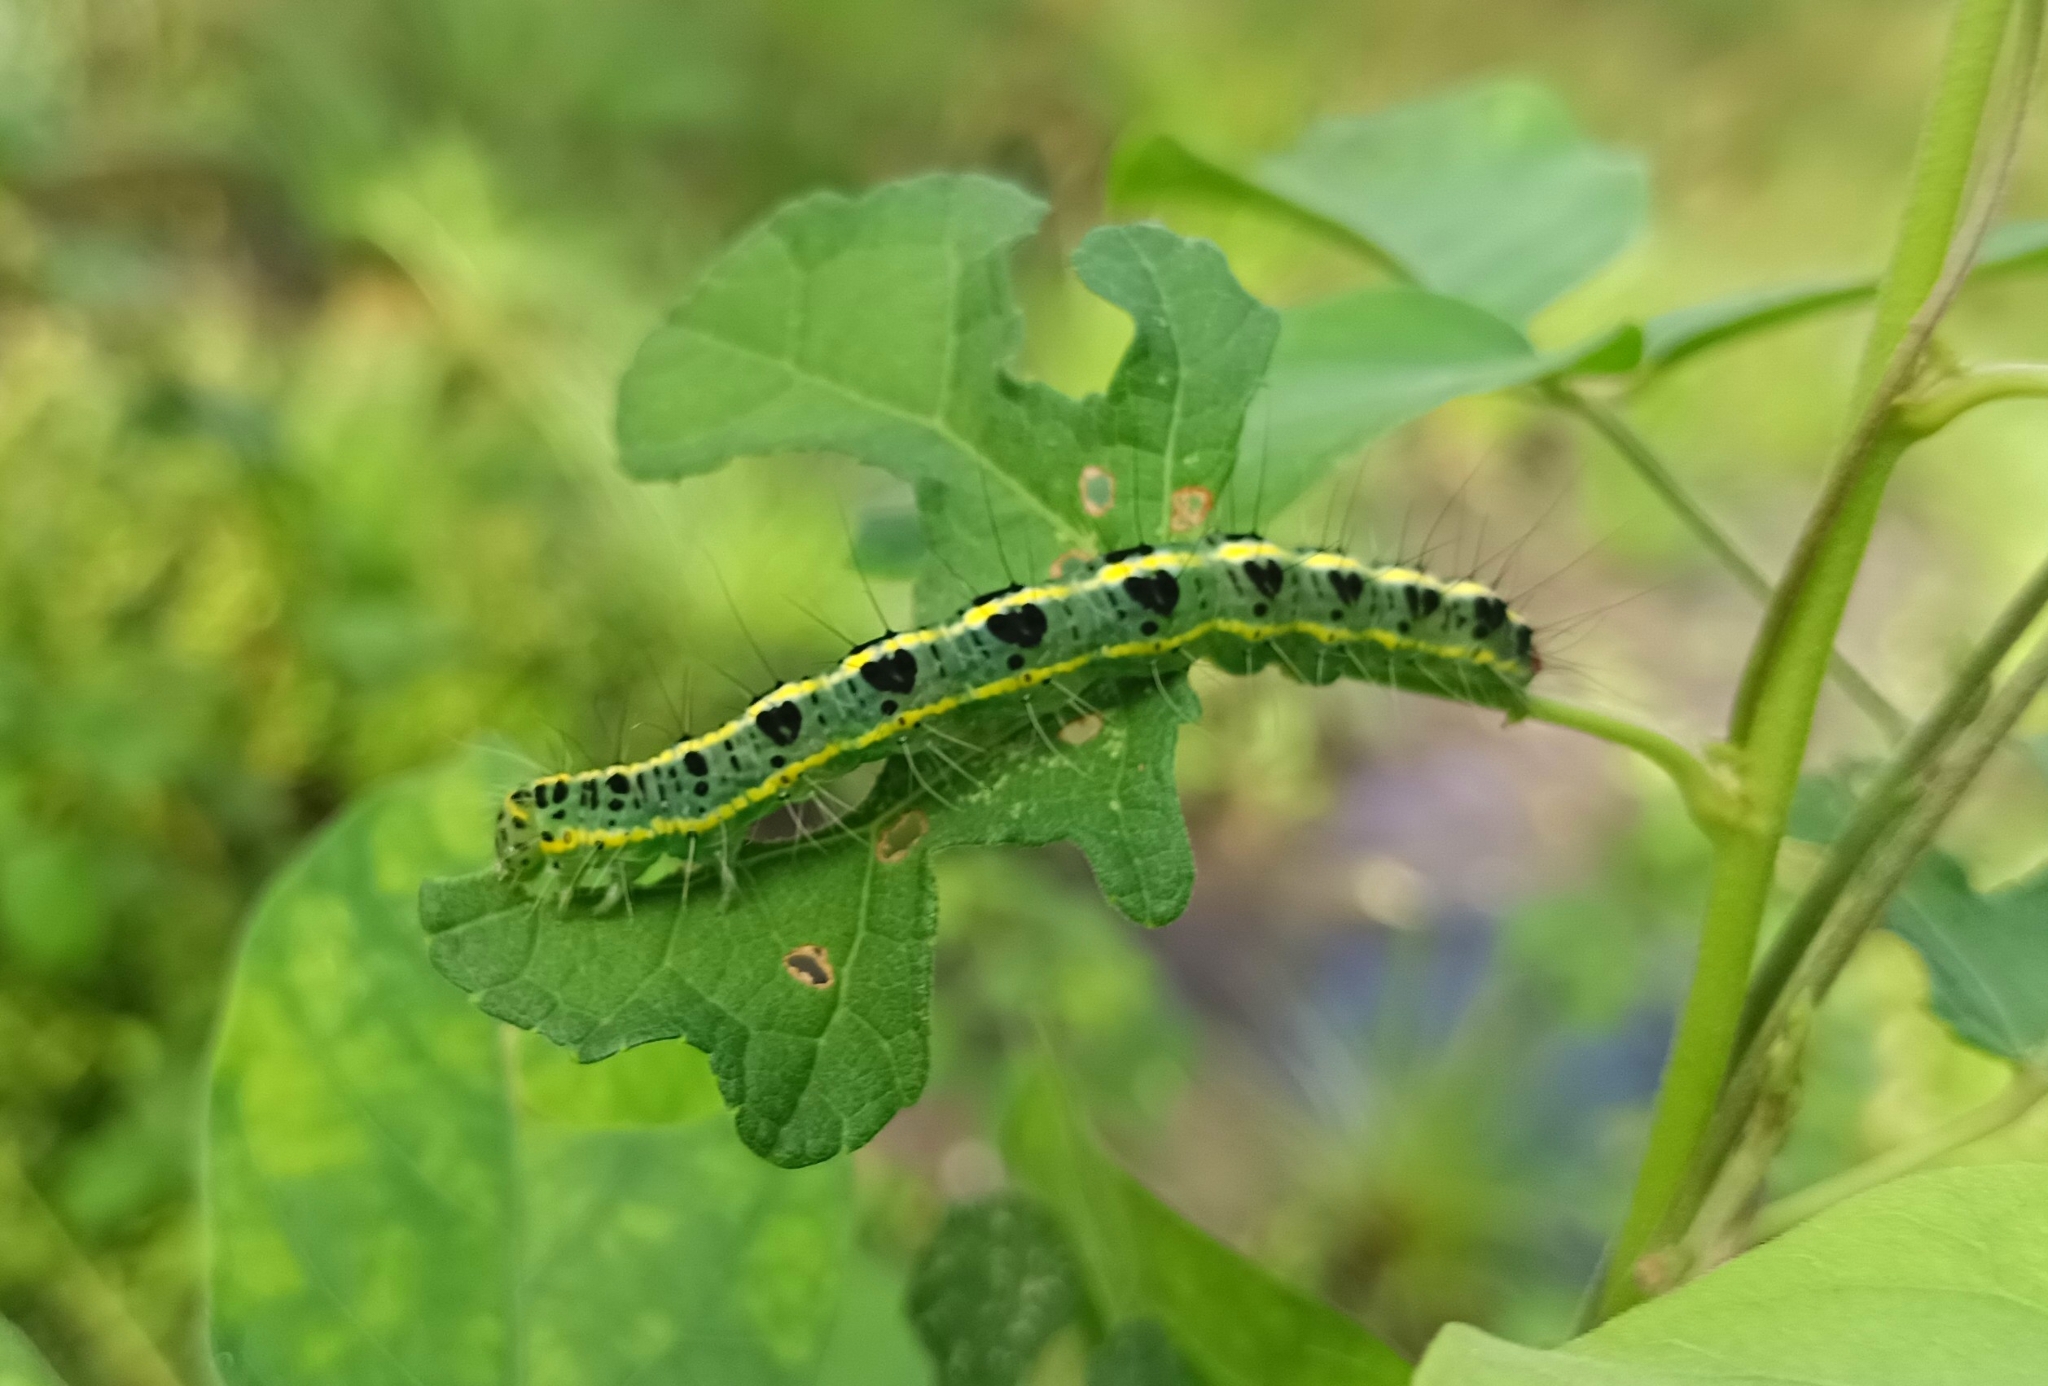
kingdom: Animalia
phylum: Arthropoda
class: Insecta
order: Lepidoptera
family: Nolidae
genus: Xanthodes
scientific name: Xanthodes transversa
